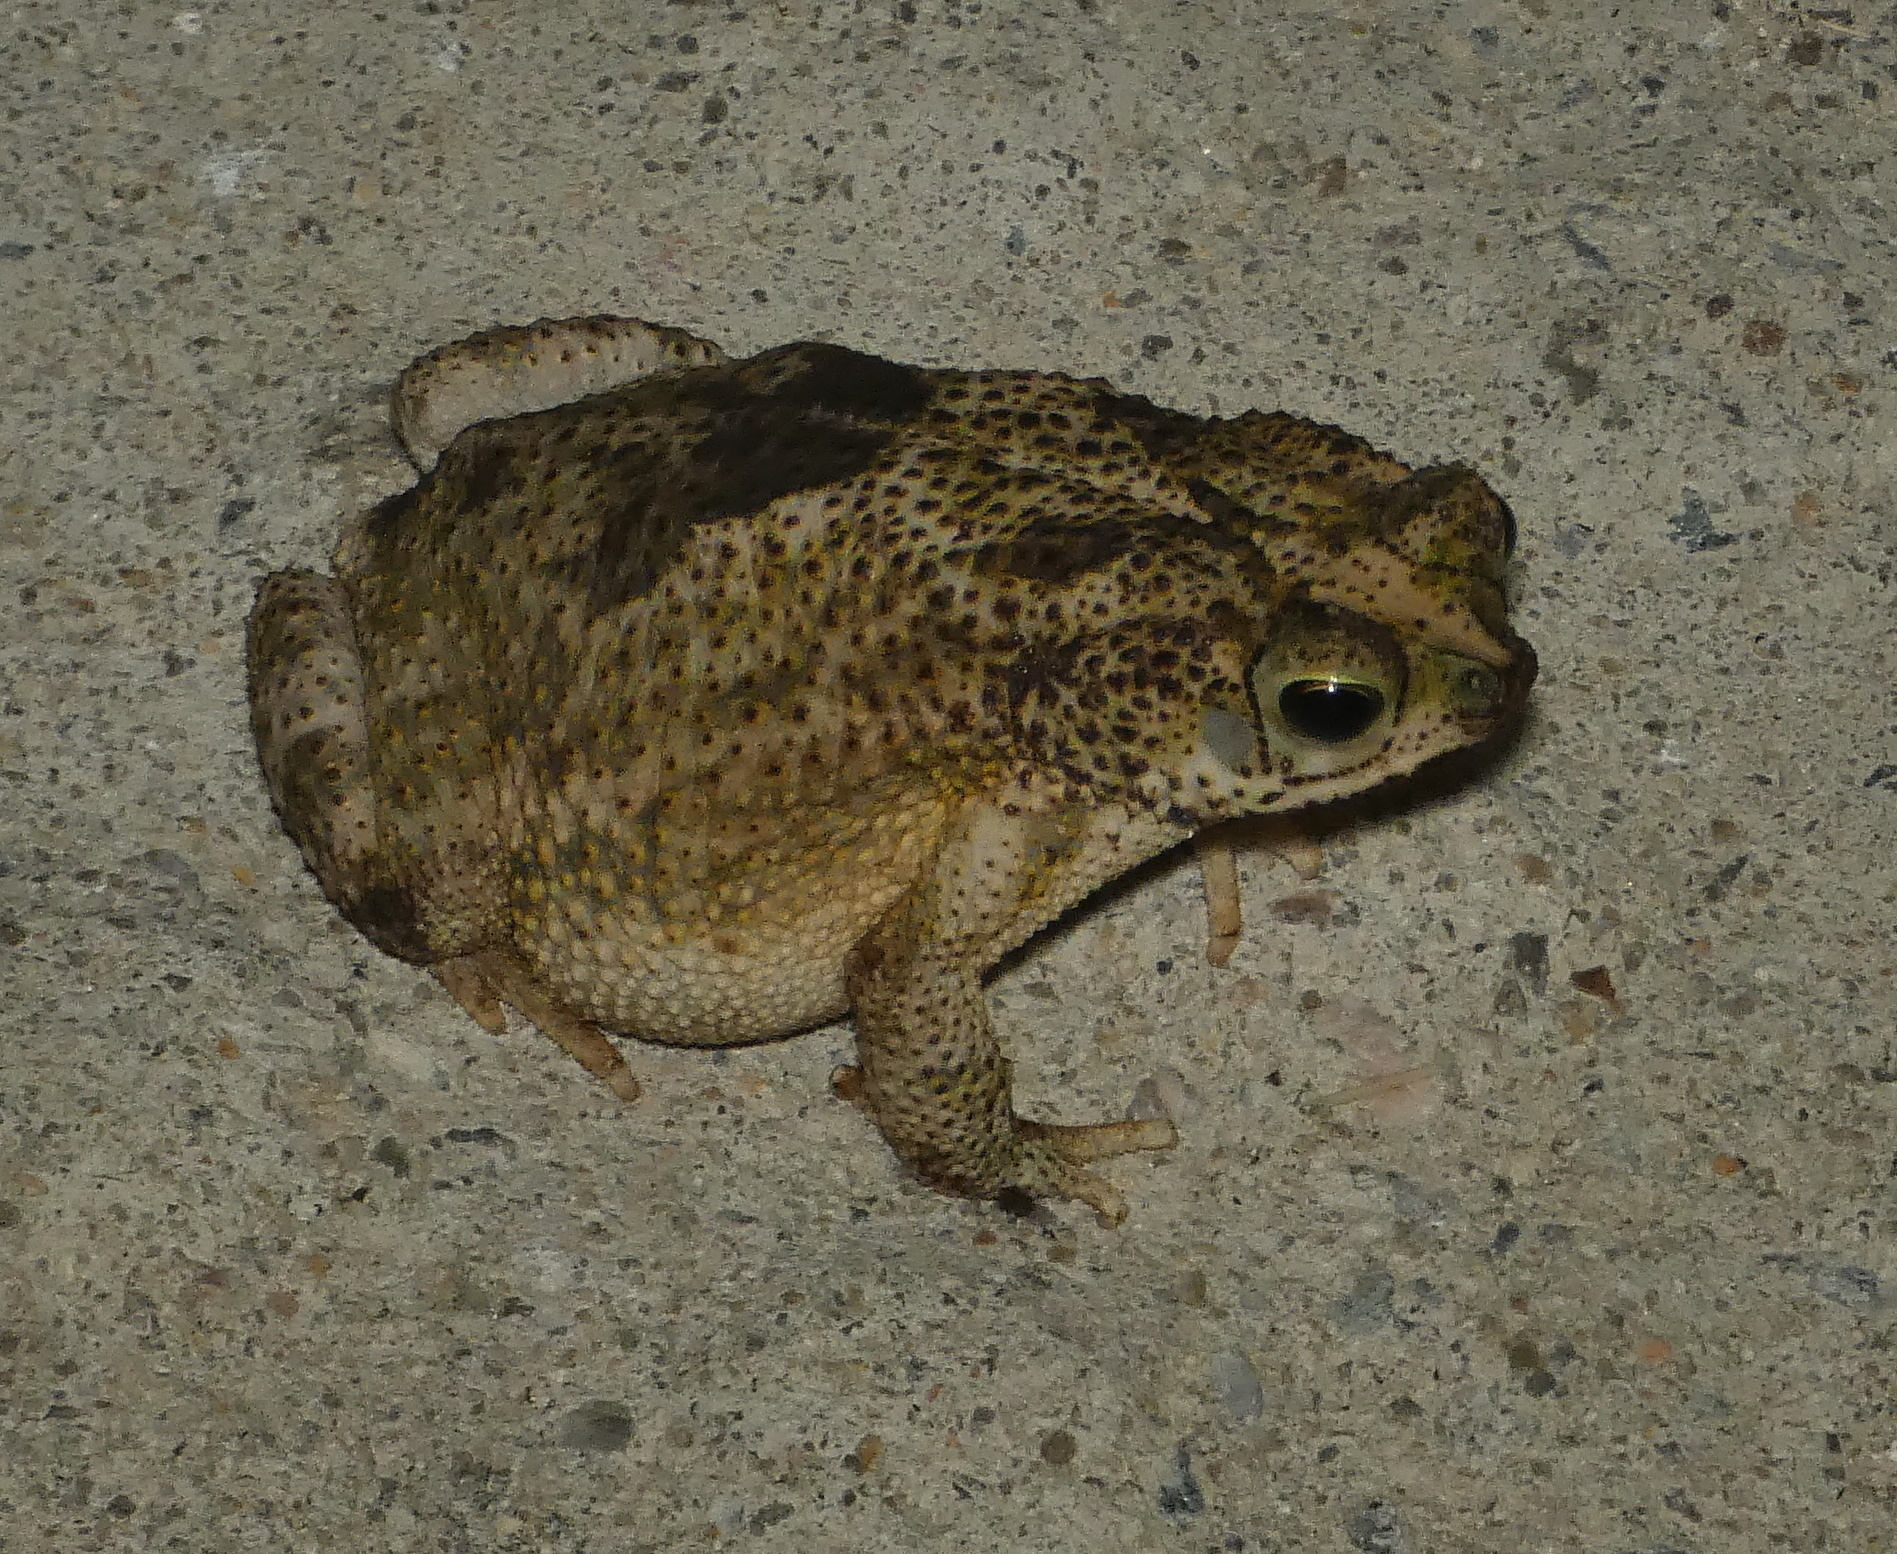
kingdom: Animalia
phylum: Chordata
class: Amphibia
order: Anura
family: Bufonidae
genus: Rhinella
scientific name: Rhinella granulosa
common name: Common lesser toad
